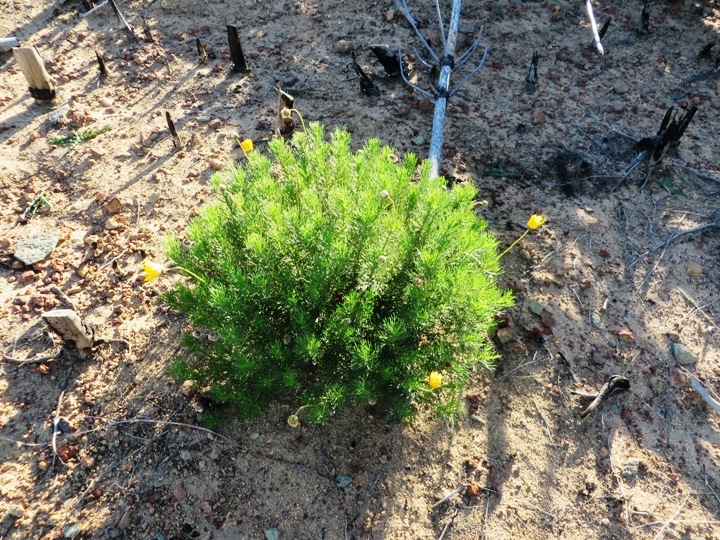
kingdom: Plantae
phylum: Tracheophyta
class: Magnoliopsida
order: Asterales
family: Asteraceae
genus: Ursinia
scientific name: Ursinia paleacea
